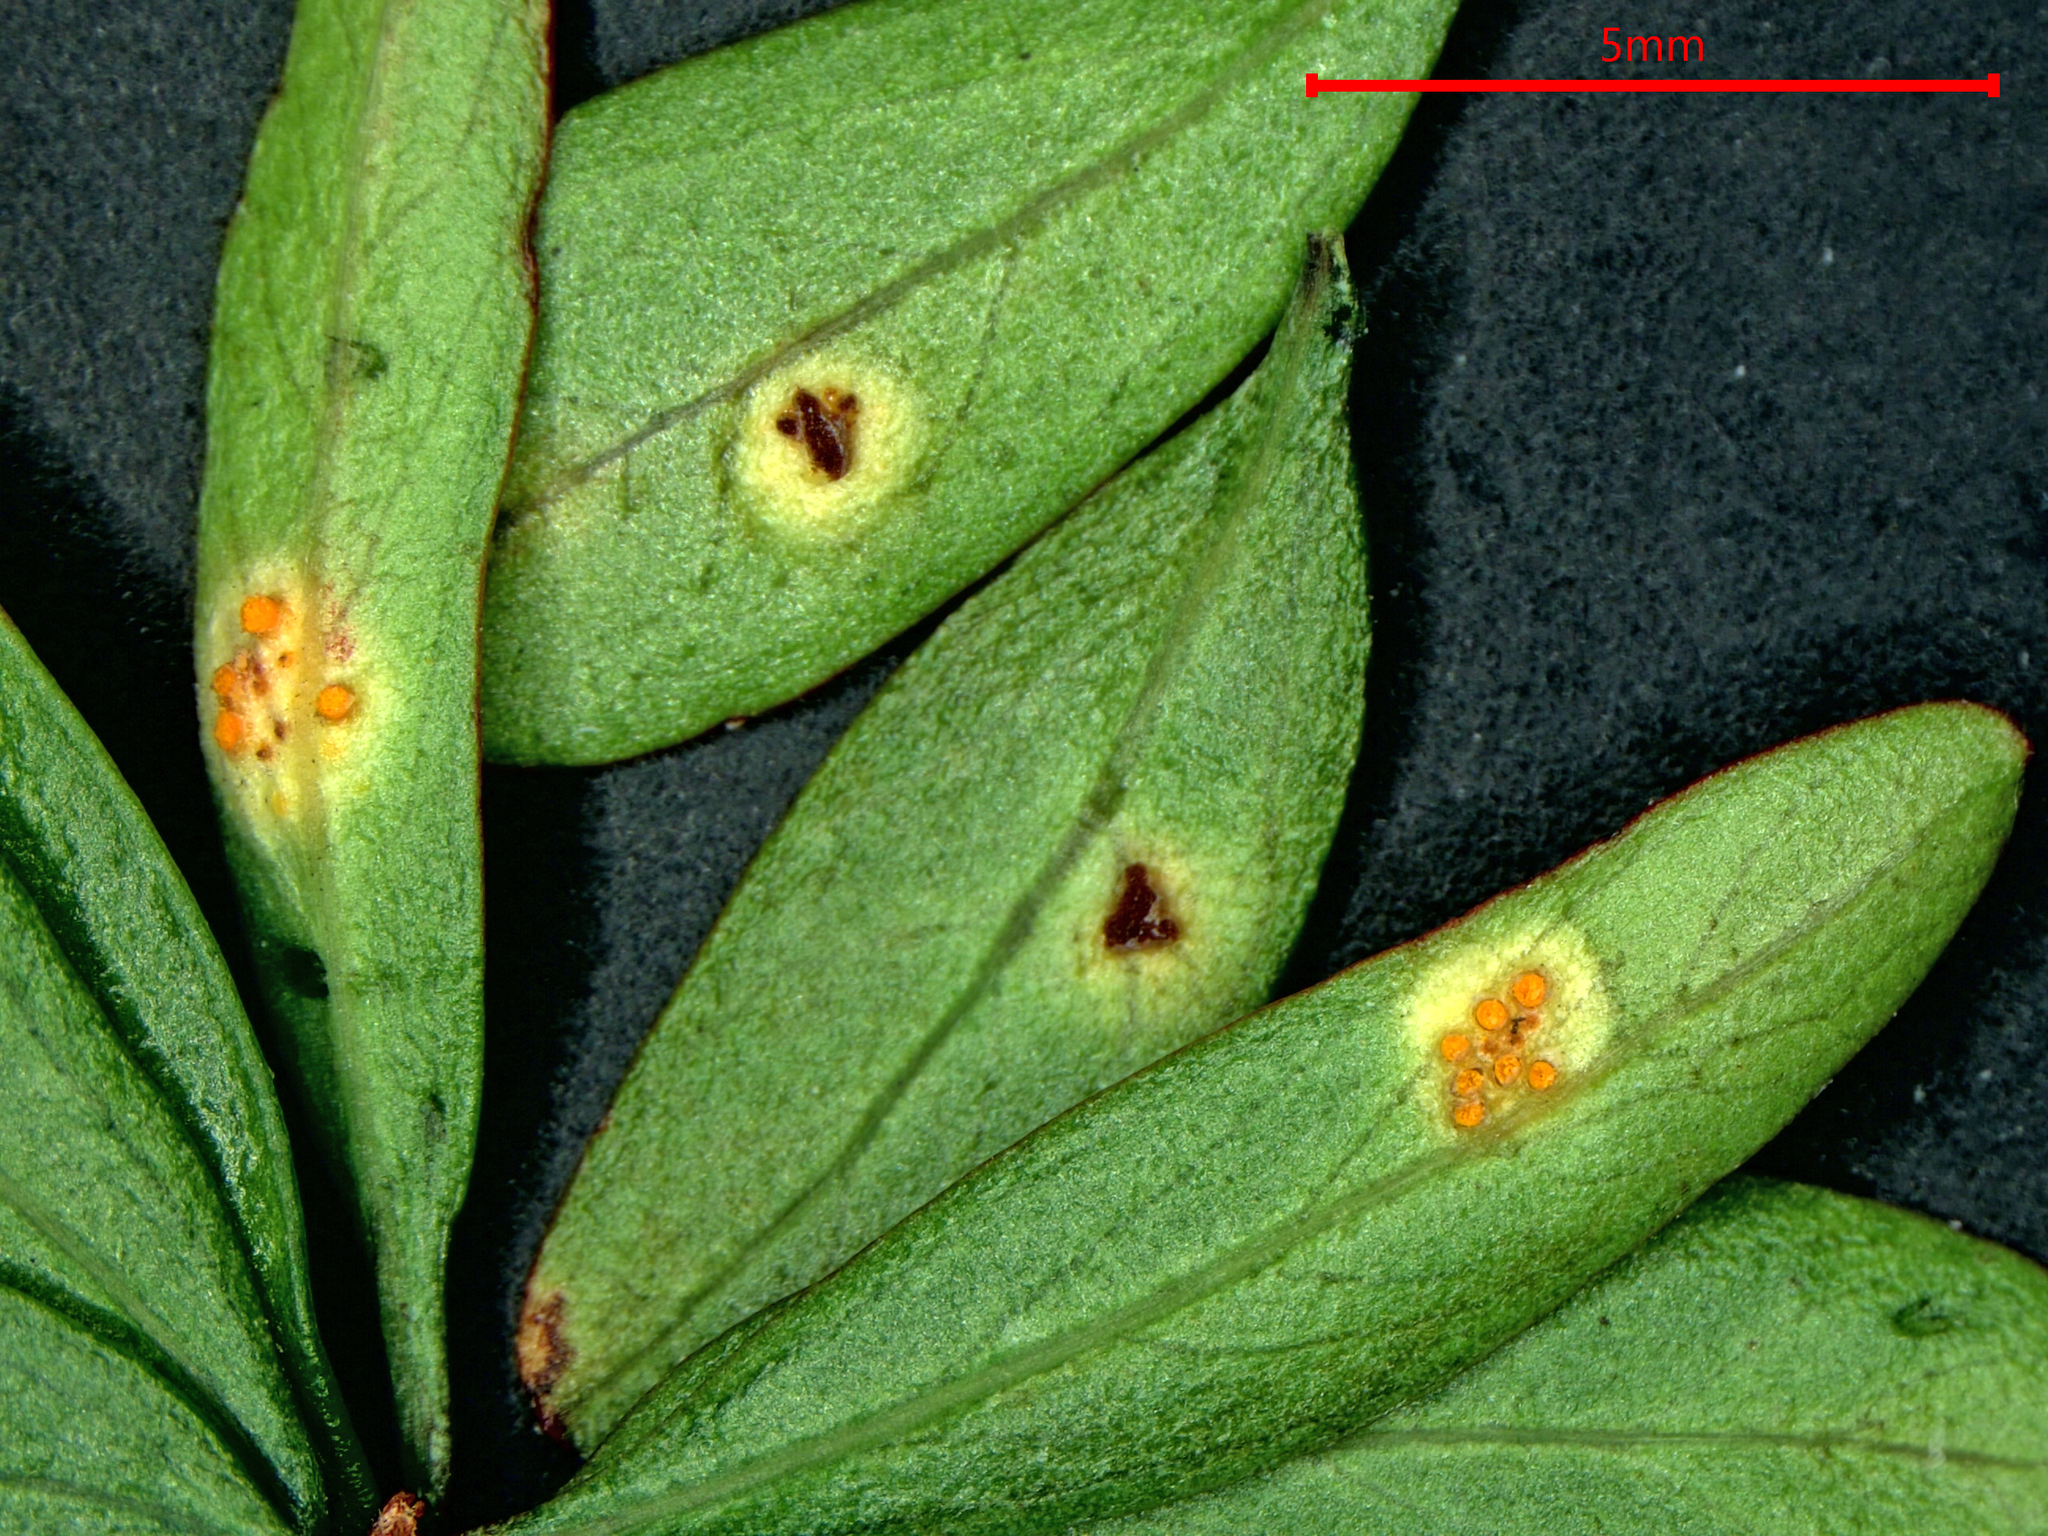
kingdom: Fungi
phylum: Basidiomycota
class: Pucciniomycetes
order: Pucciniales
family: Pucciniaceae
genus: Uromyces
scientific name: Uromyces discariae
